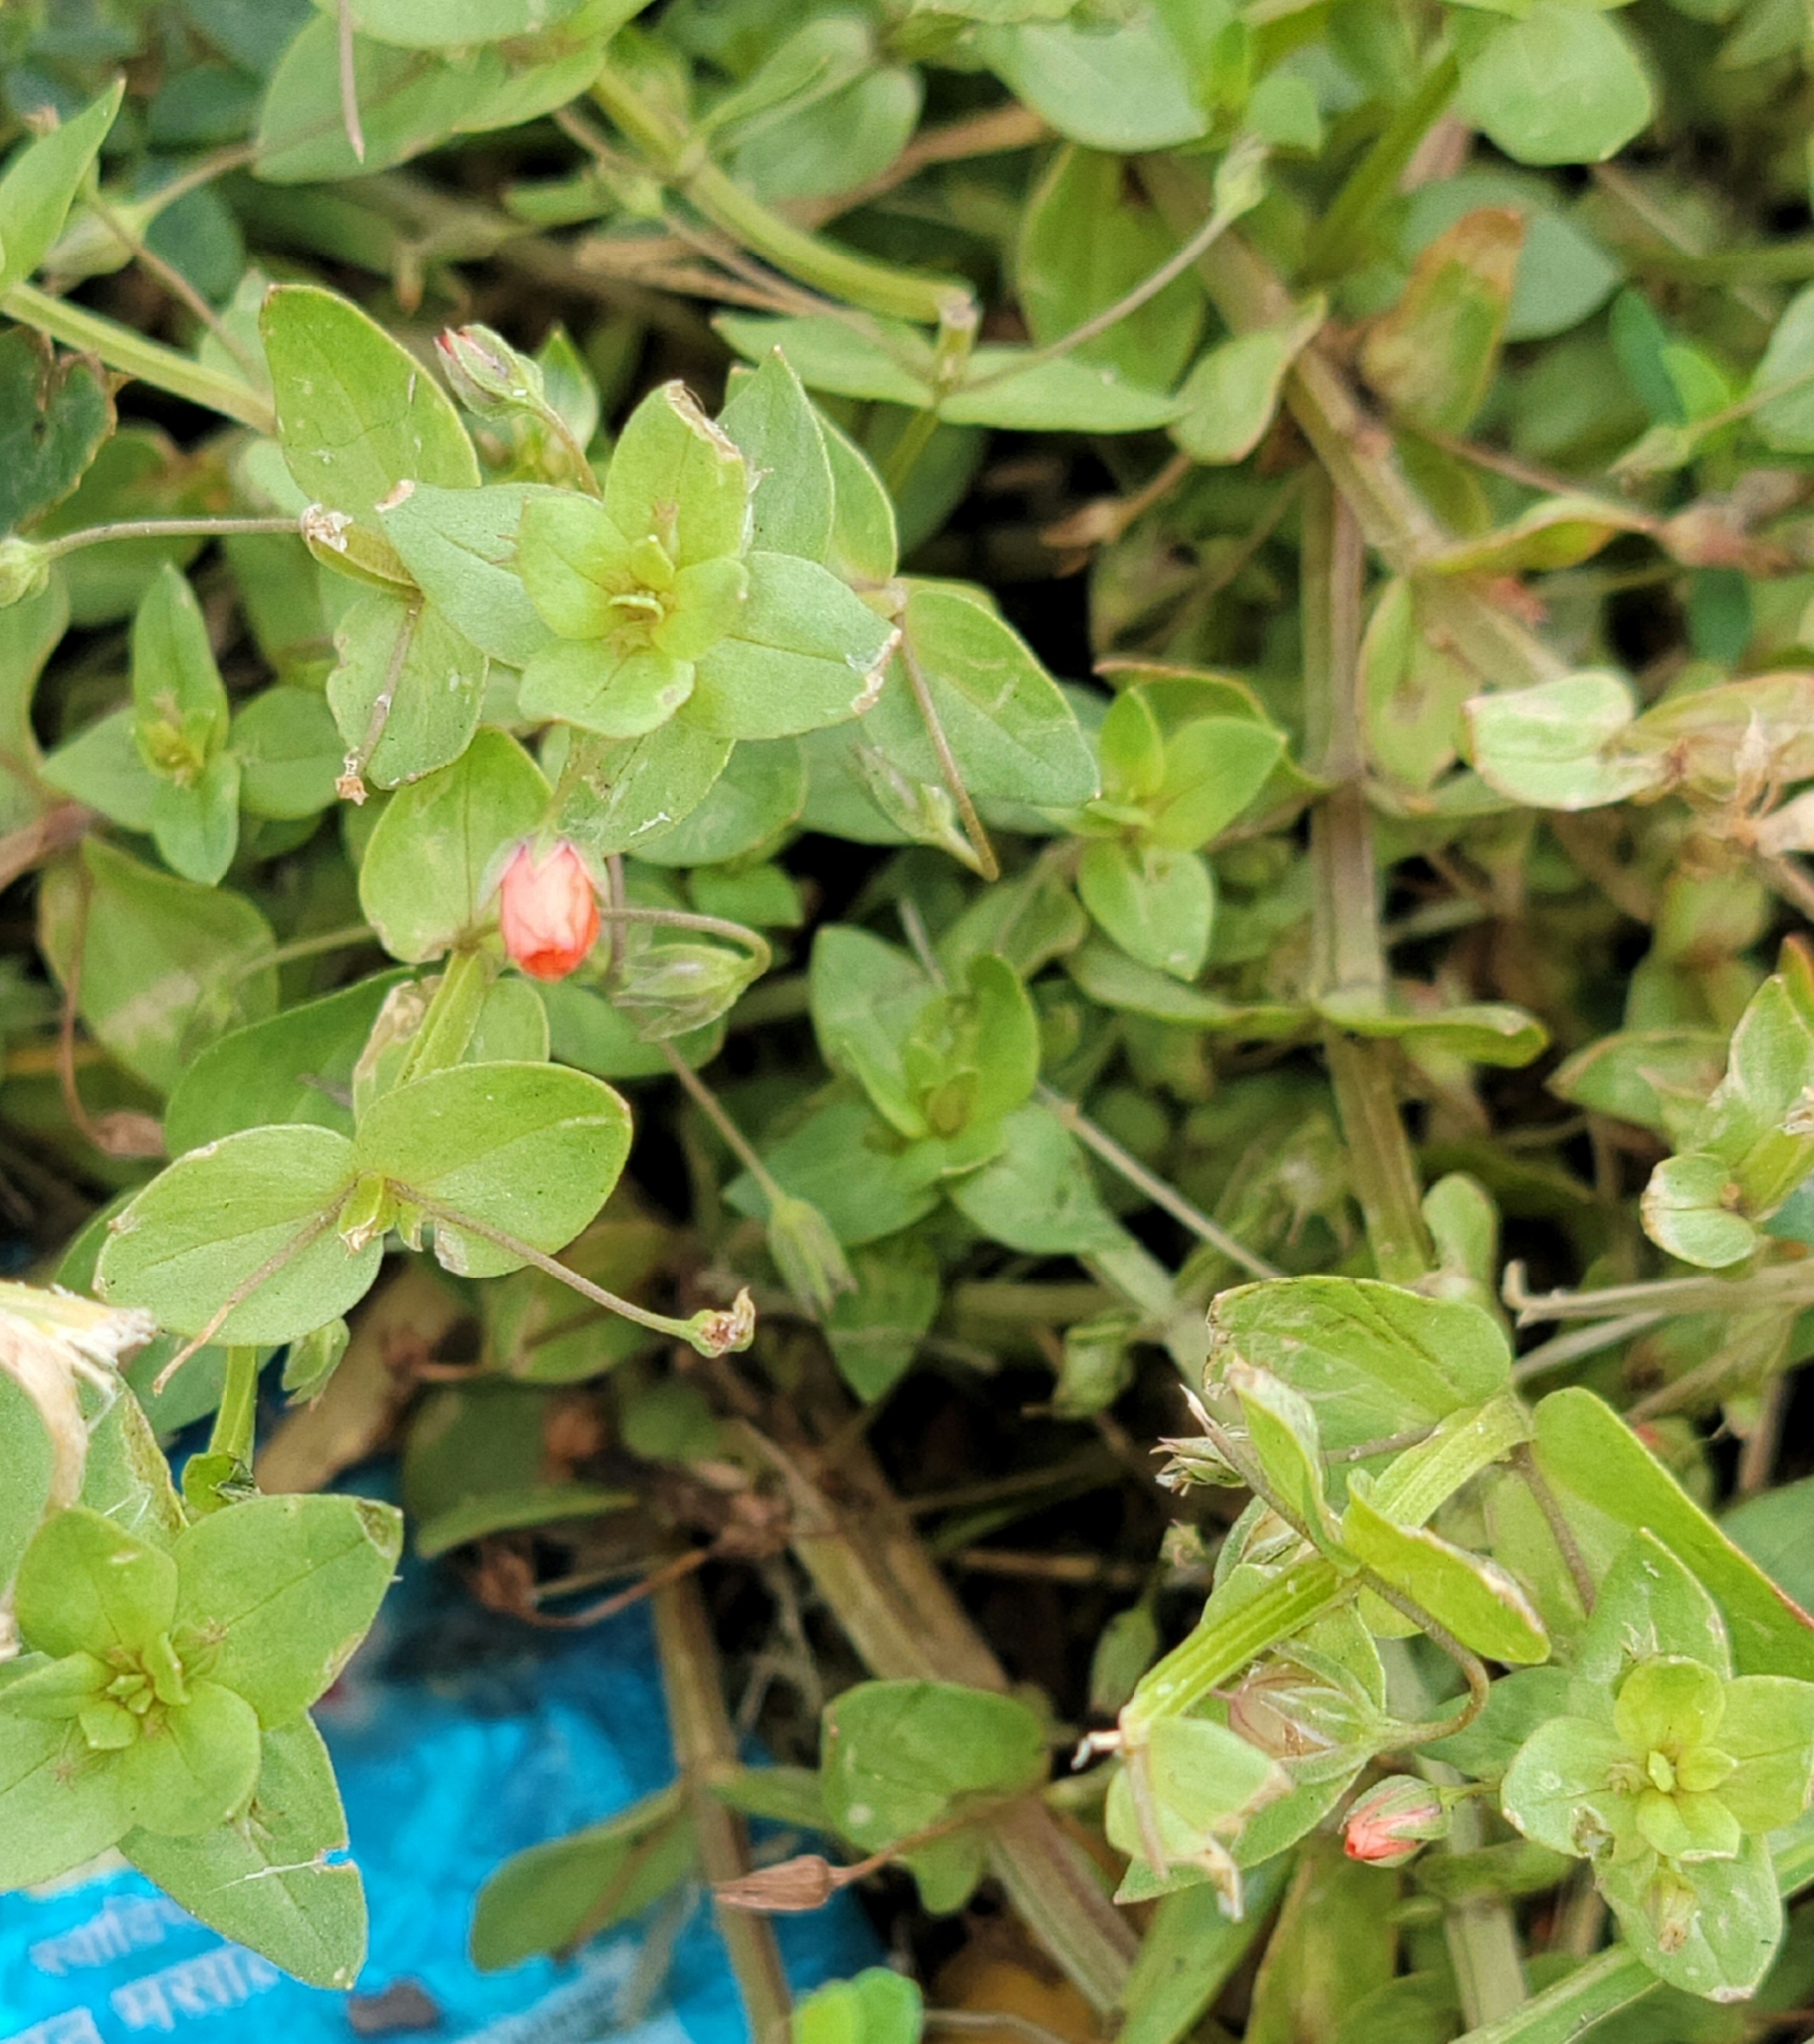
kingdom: Plantae
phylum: Tracheophyta
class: Magnoliopsida
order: Ericales
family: Primulaceae
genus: Lysimachia
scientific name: Lysimachia arvensis
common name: Scarlet pimpernel
